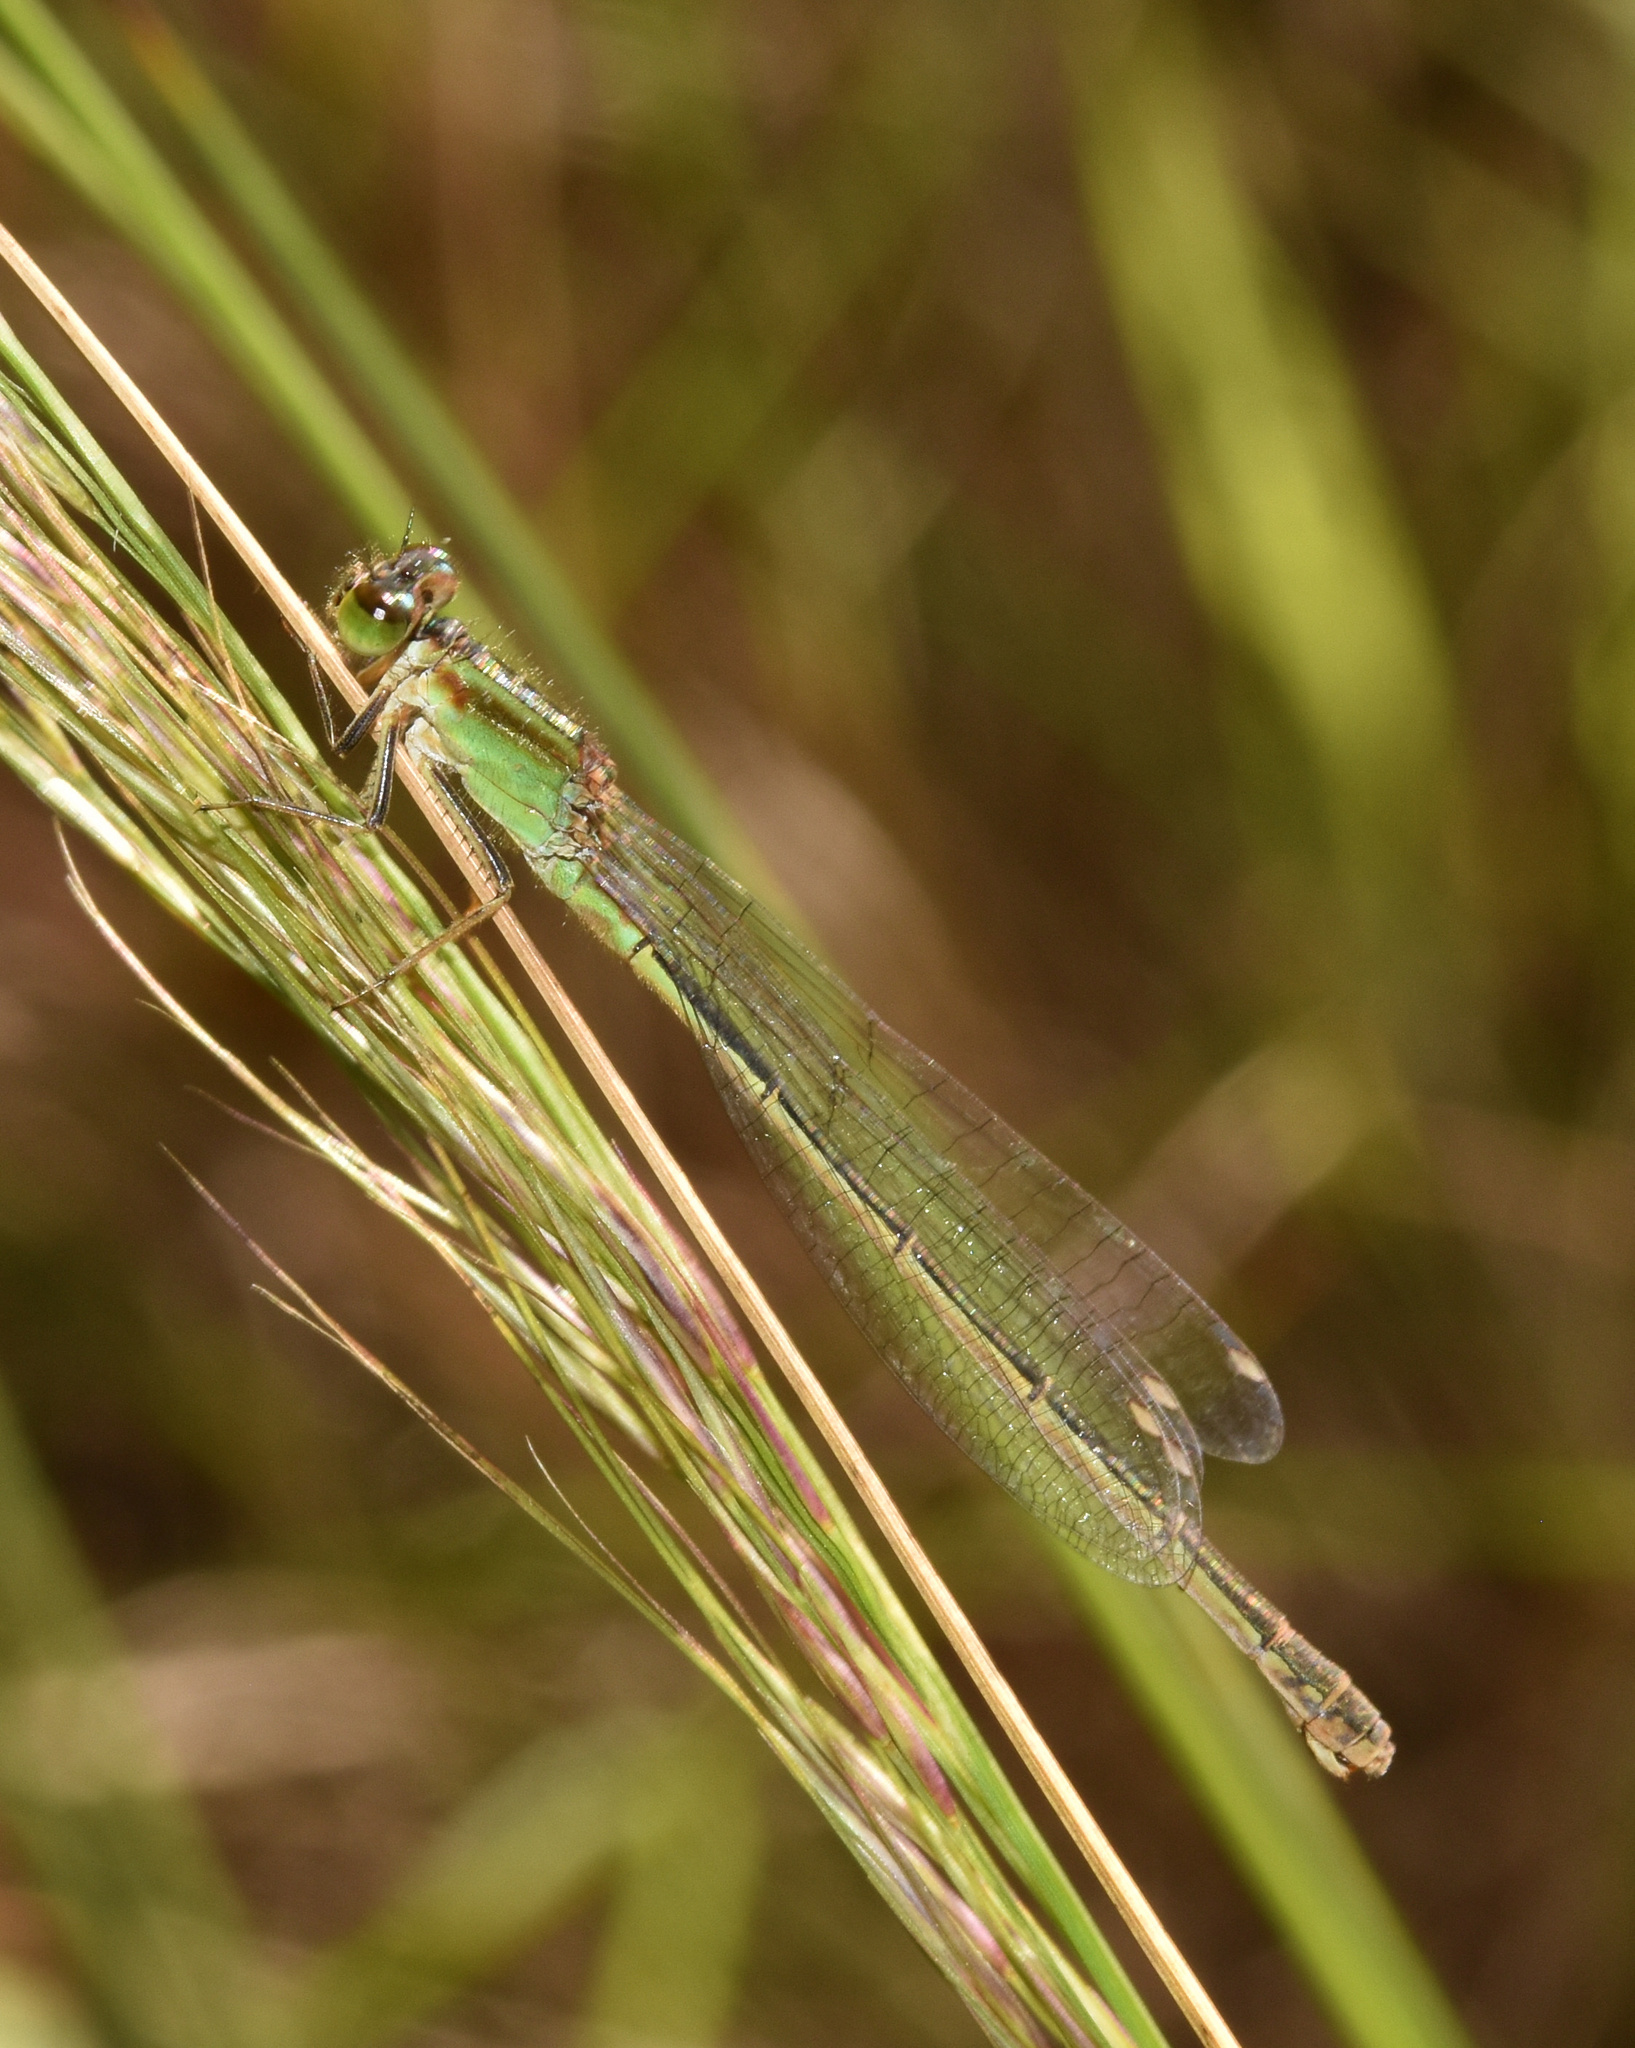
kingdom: Animalia
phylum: Arthropoda
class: Insecta
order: Odonata
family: Coenagrionidae
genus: Ischnura
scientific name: Ischnura senegalensis
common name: Tropical bluetail
